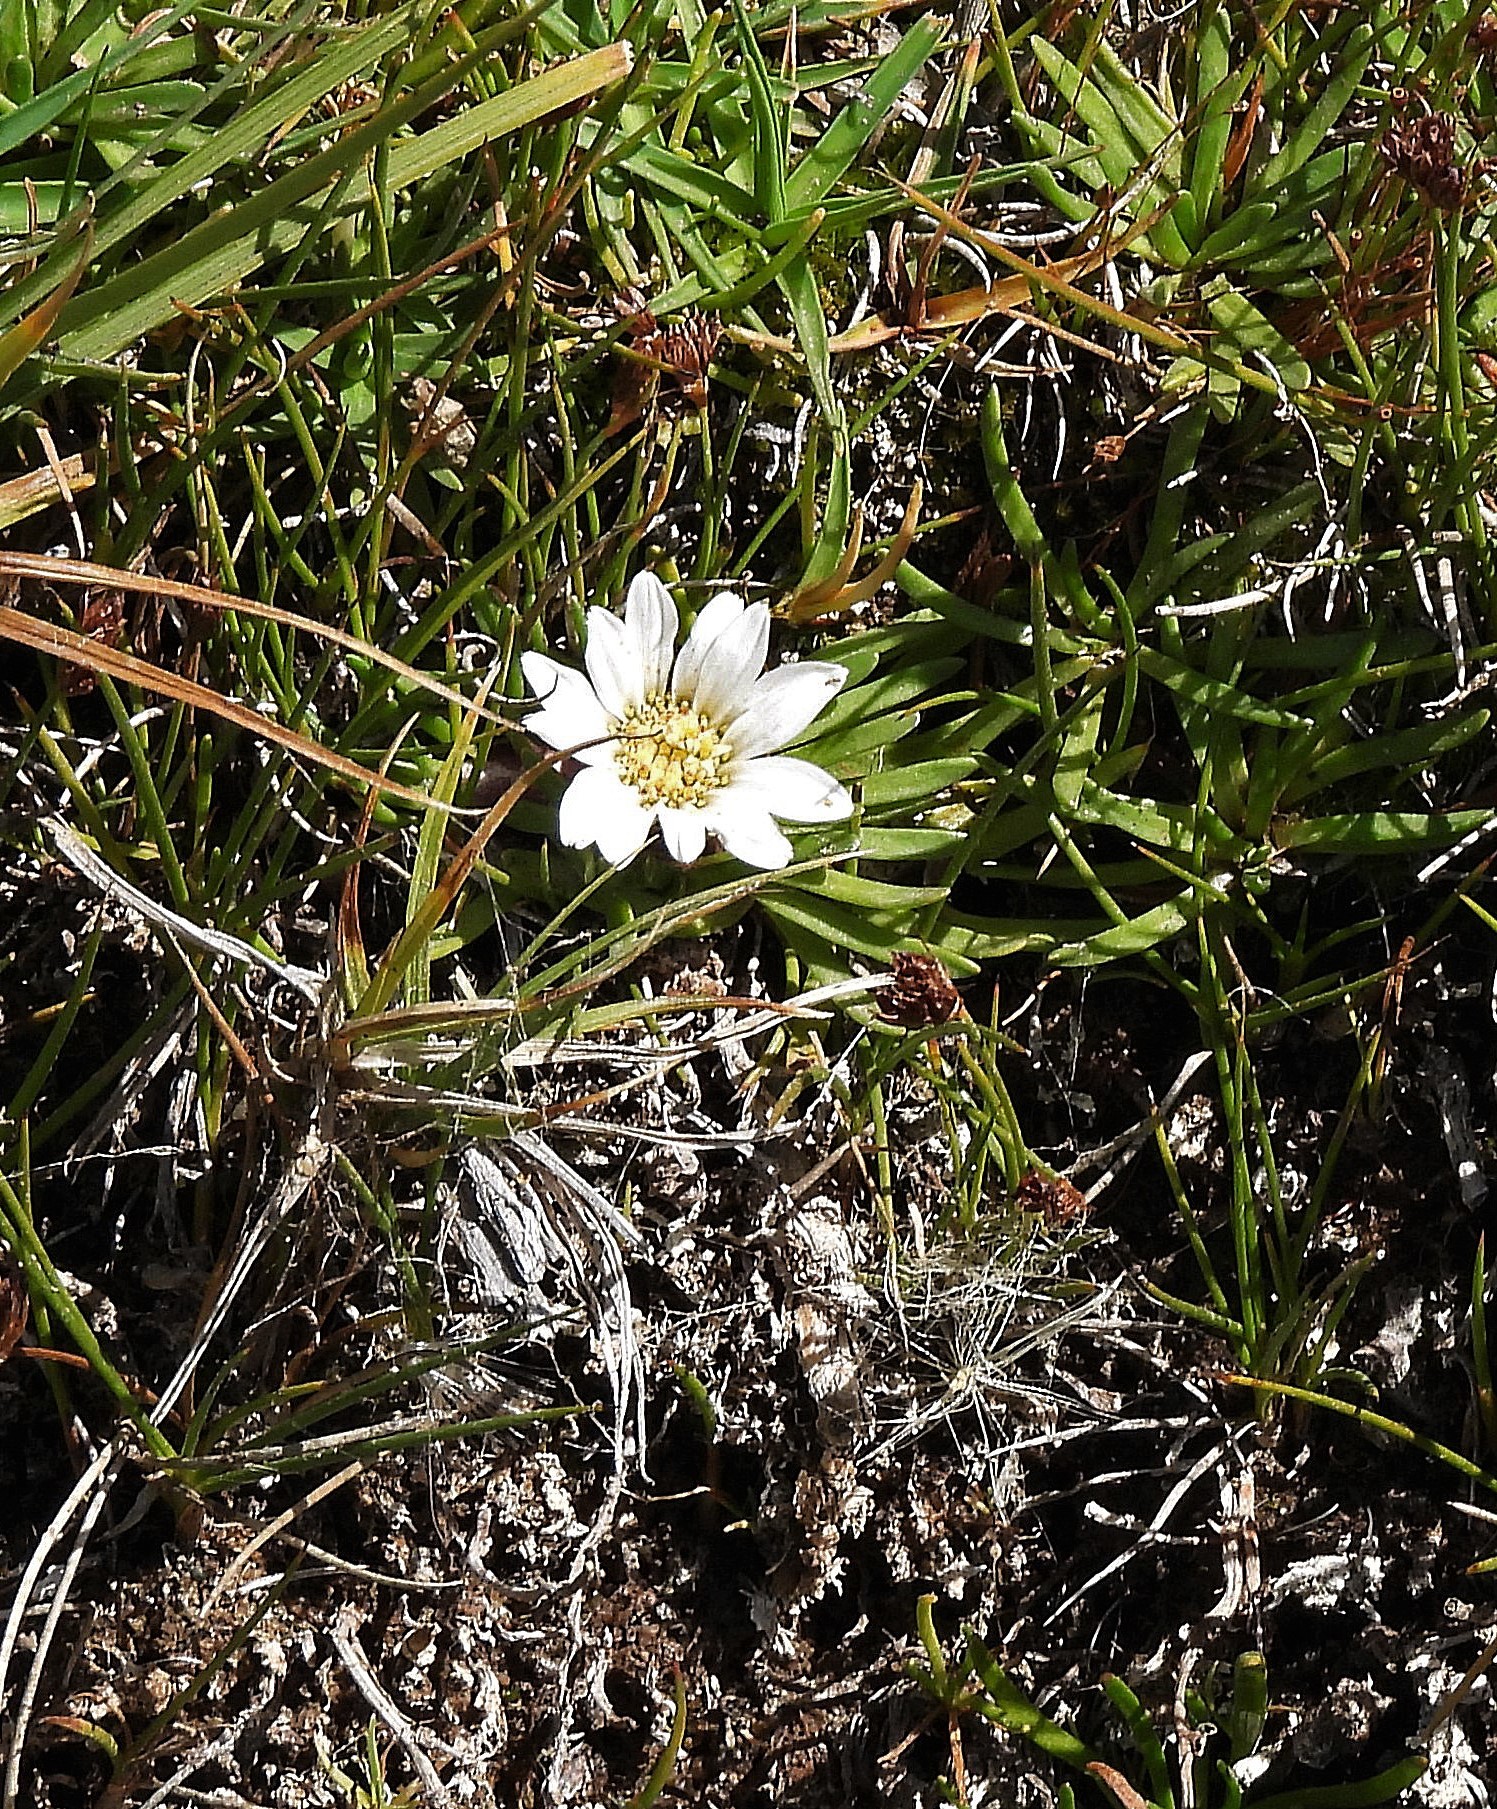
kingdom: Plantae
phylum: Tracheophyta
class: Magnoliopsida
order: Asterales
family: Asteraceae
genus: Rockhausenia
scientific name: Rockhausenia pygmaea
